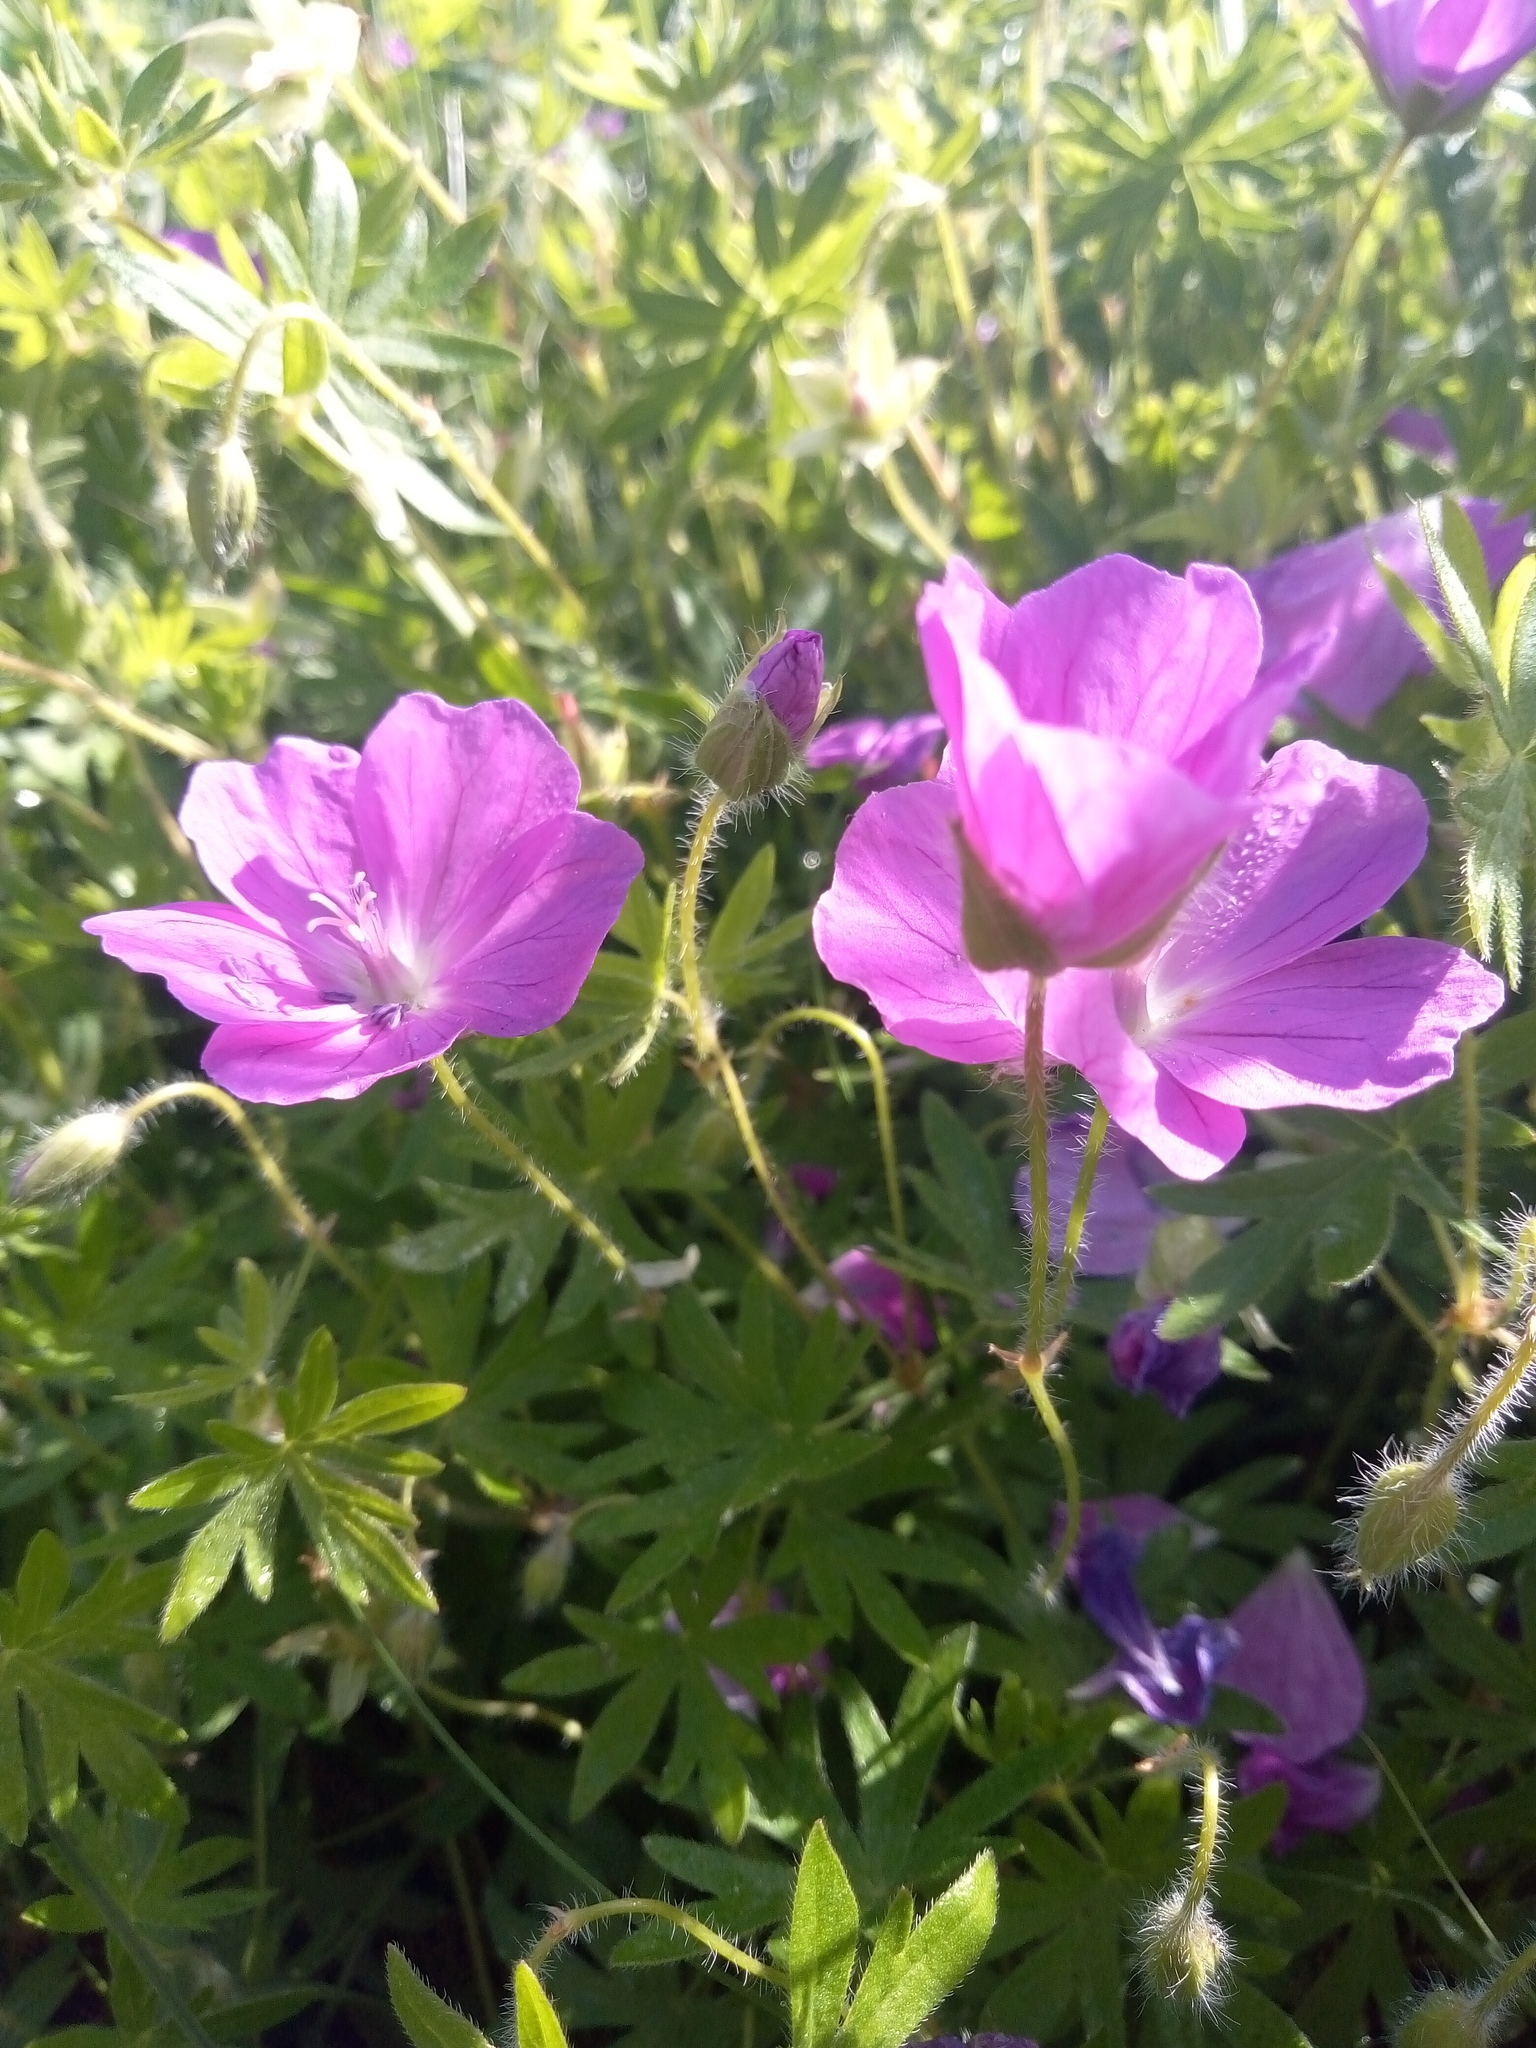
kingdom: Plantae
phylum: Tracheophyta
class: Magnoliopsida
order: Geraniales
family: Geraniaceae
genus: Geranium
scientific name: Geranium sanguineum
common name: Bloody crane's-bill
